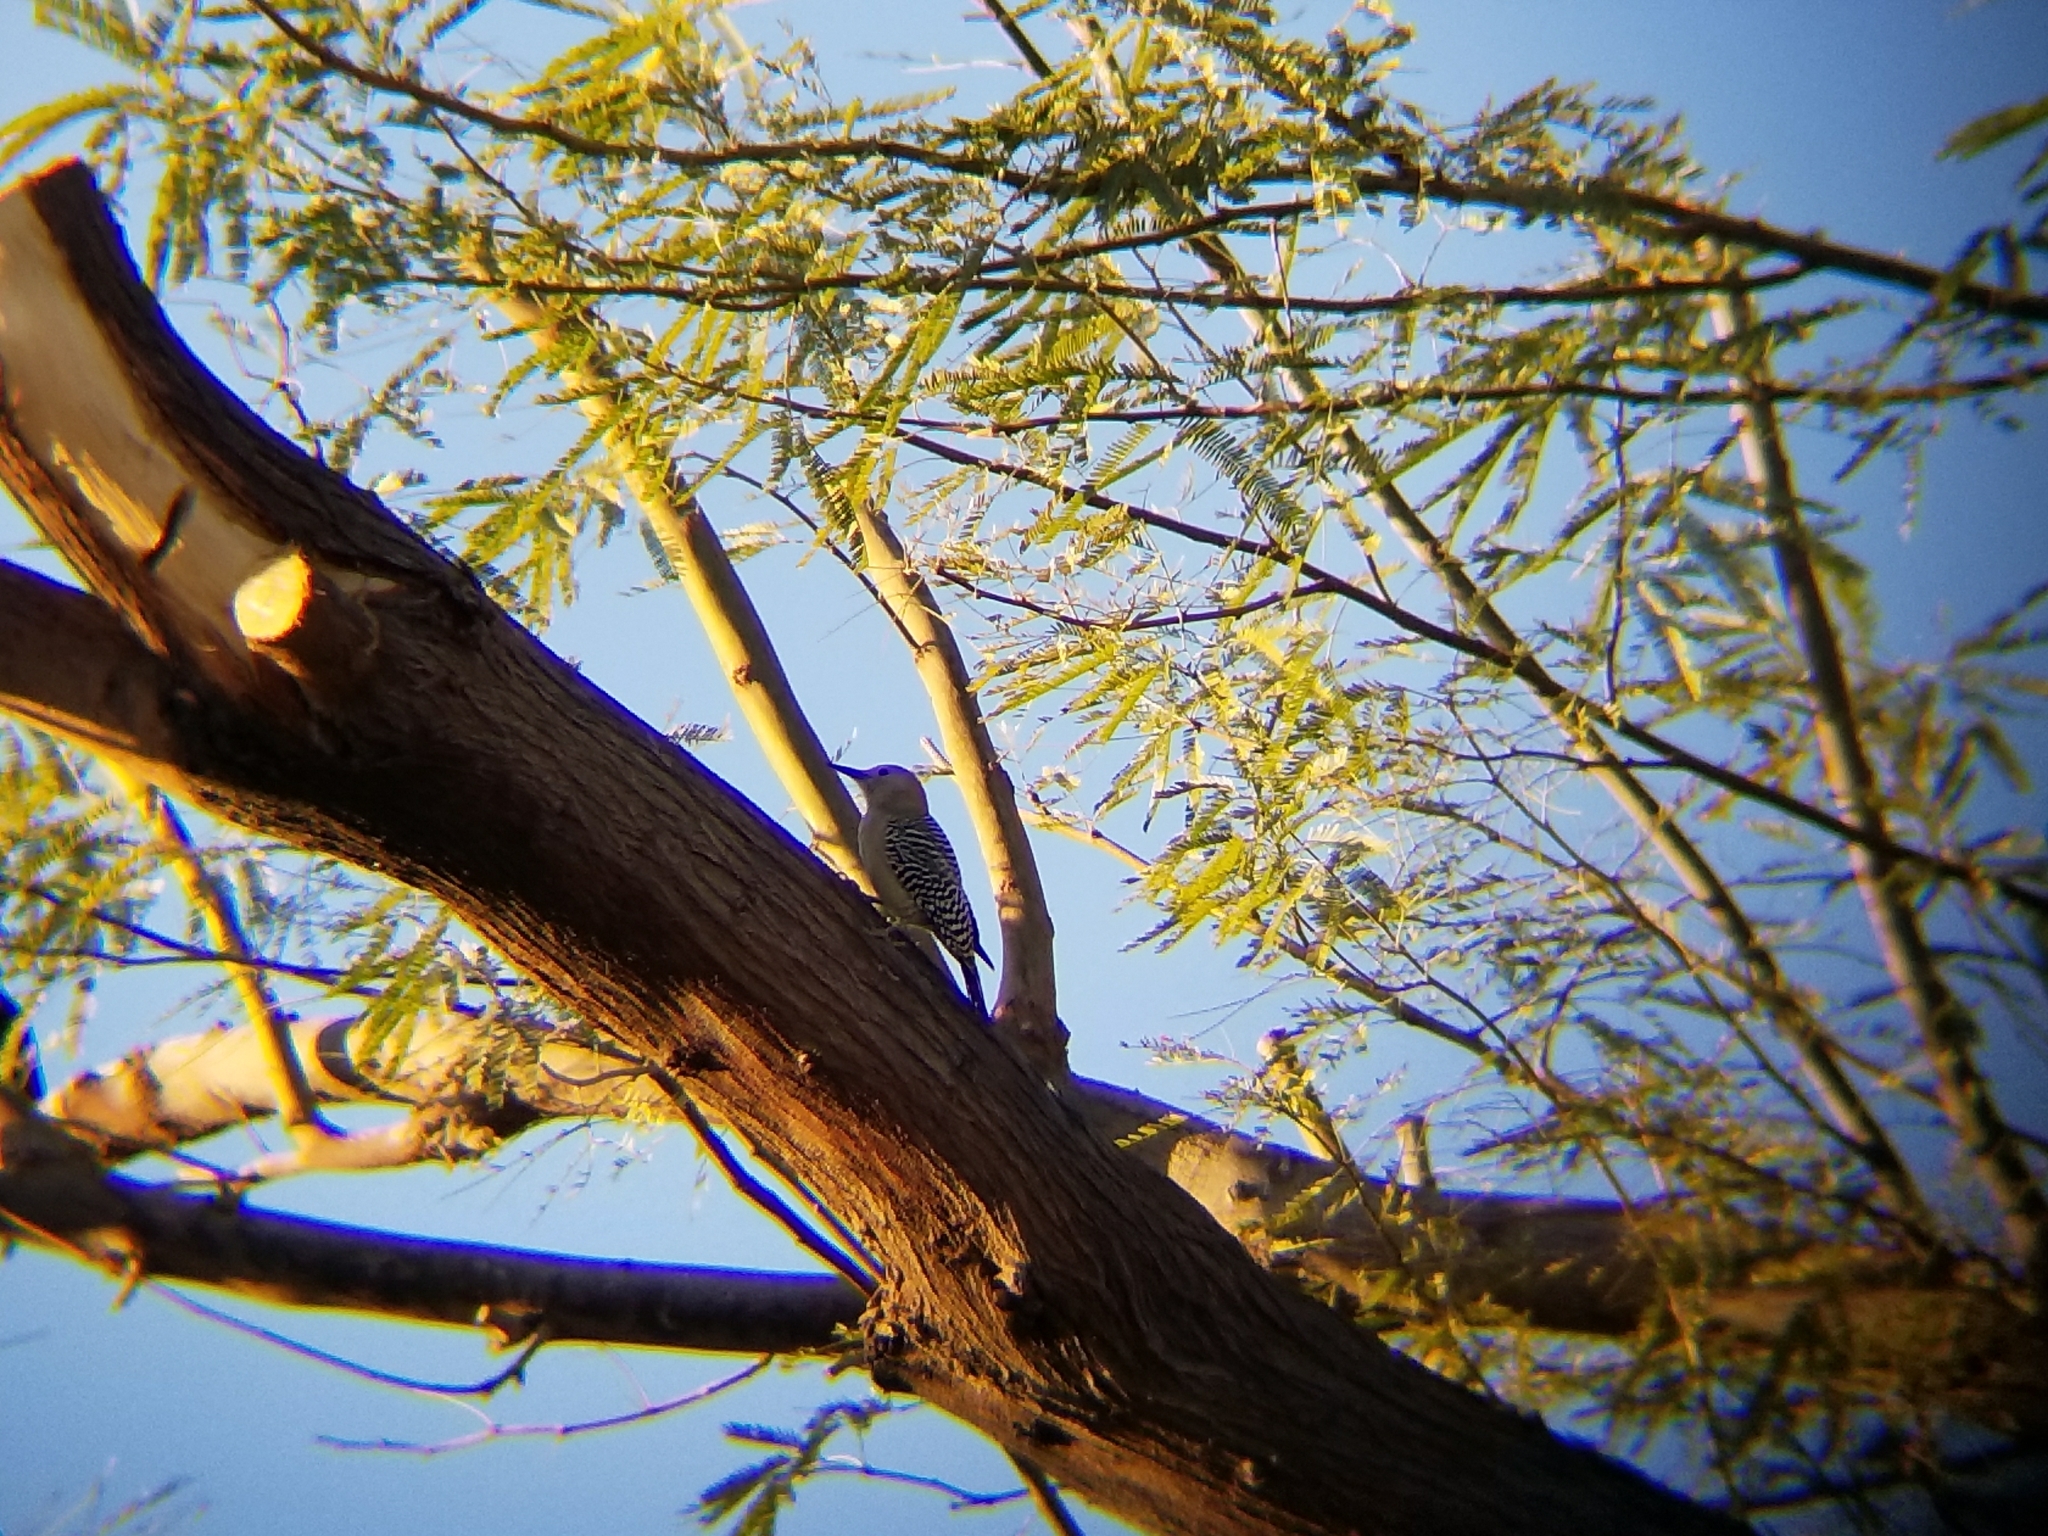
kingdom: Animalia
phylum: Chordata
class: Aves
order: Piciformes
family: Picidae
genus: Melanerpes
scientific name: Melanerpes uropygialis
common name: Gila woodpecker
